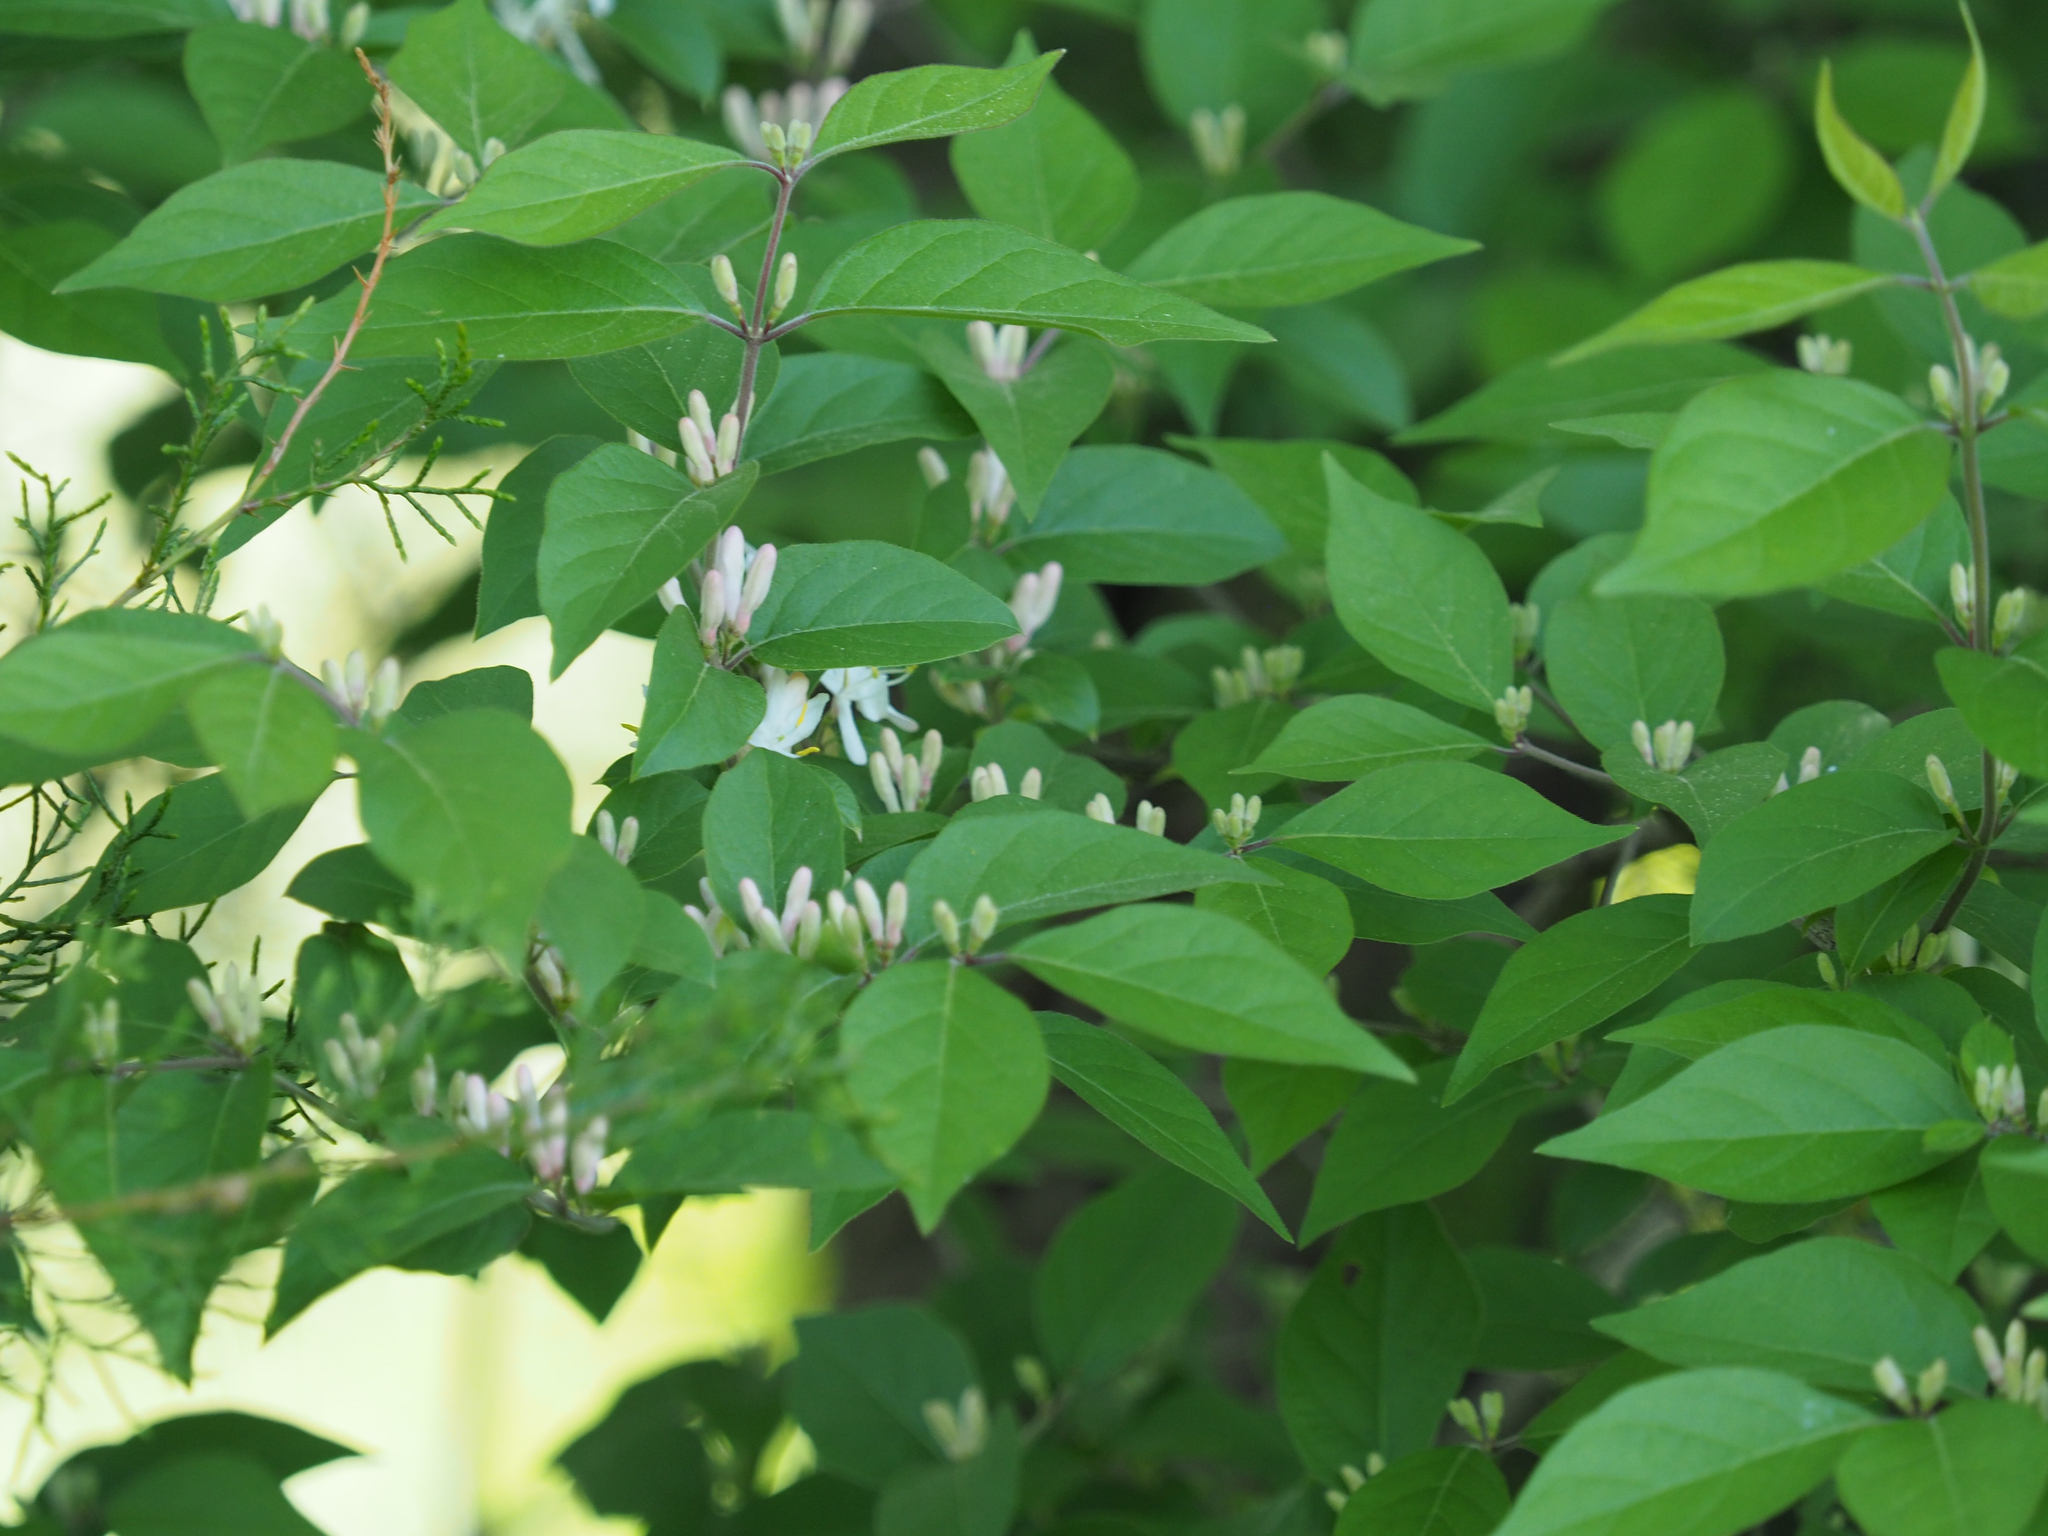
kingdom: Plantae
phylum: Tracheophyta
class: Magnoliopsida
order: Dipsacales
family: Caprifoliaceae
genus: Lonicera
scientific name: Lonicera maackii
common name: Amur honeysuckle
